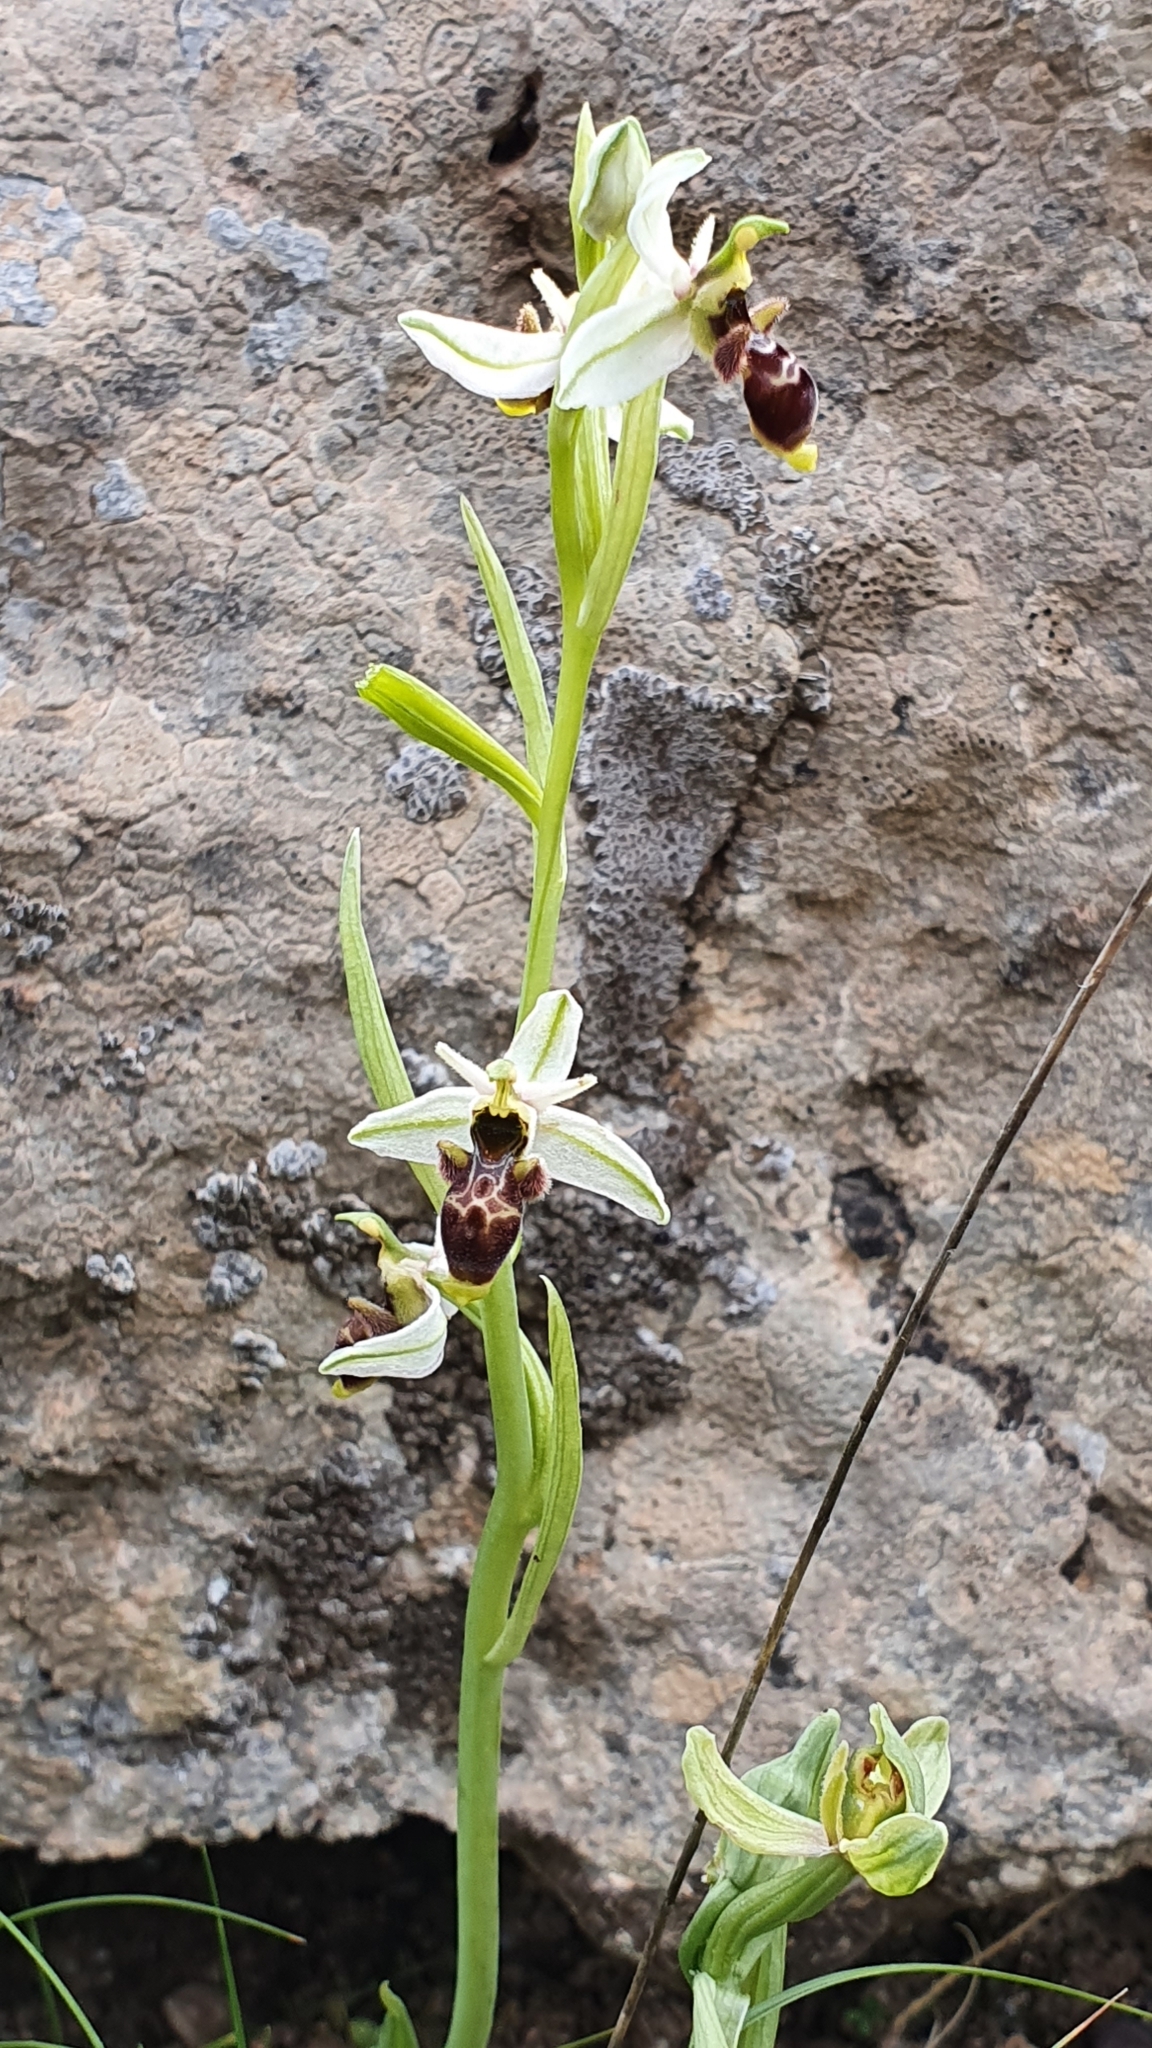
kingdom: Plantae
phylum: Tracheophyta
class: Liliopsida
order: Asparagales
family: Orchidaceae
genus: Ophrys
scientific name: Ophrys scolopax
